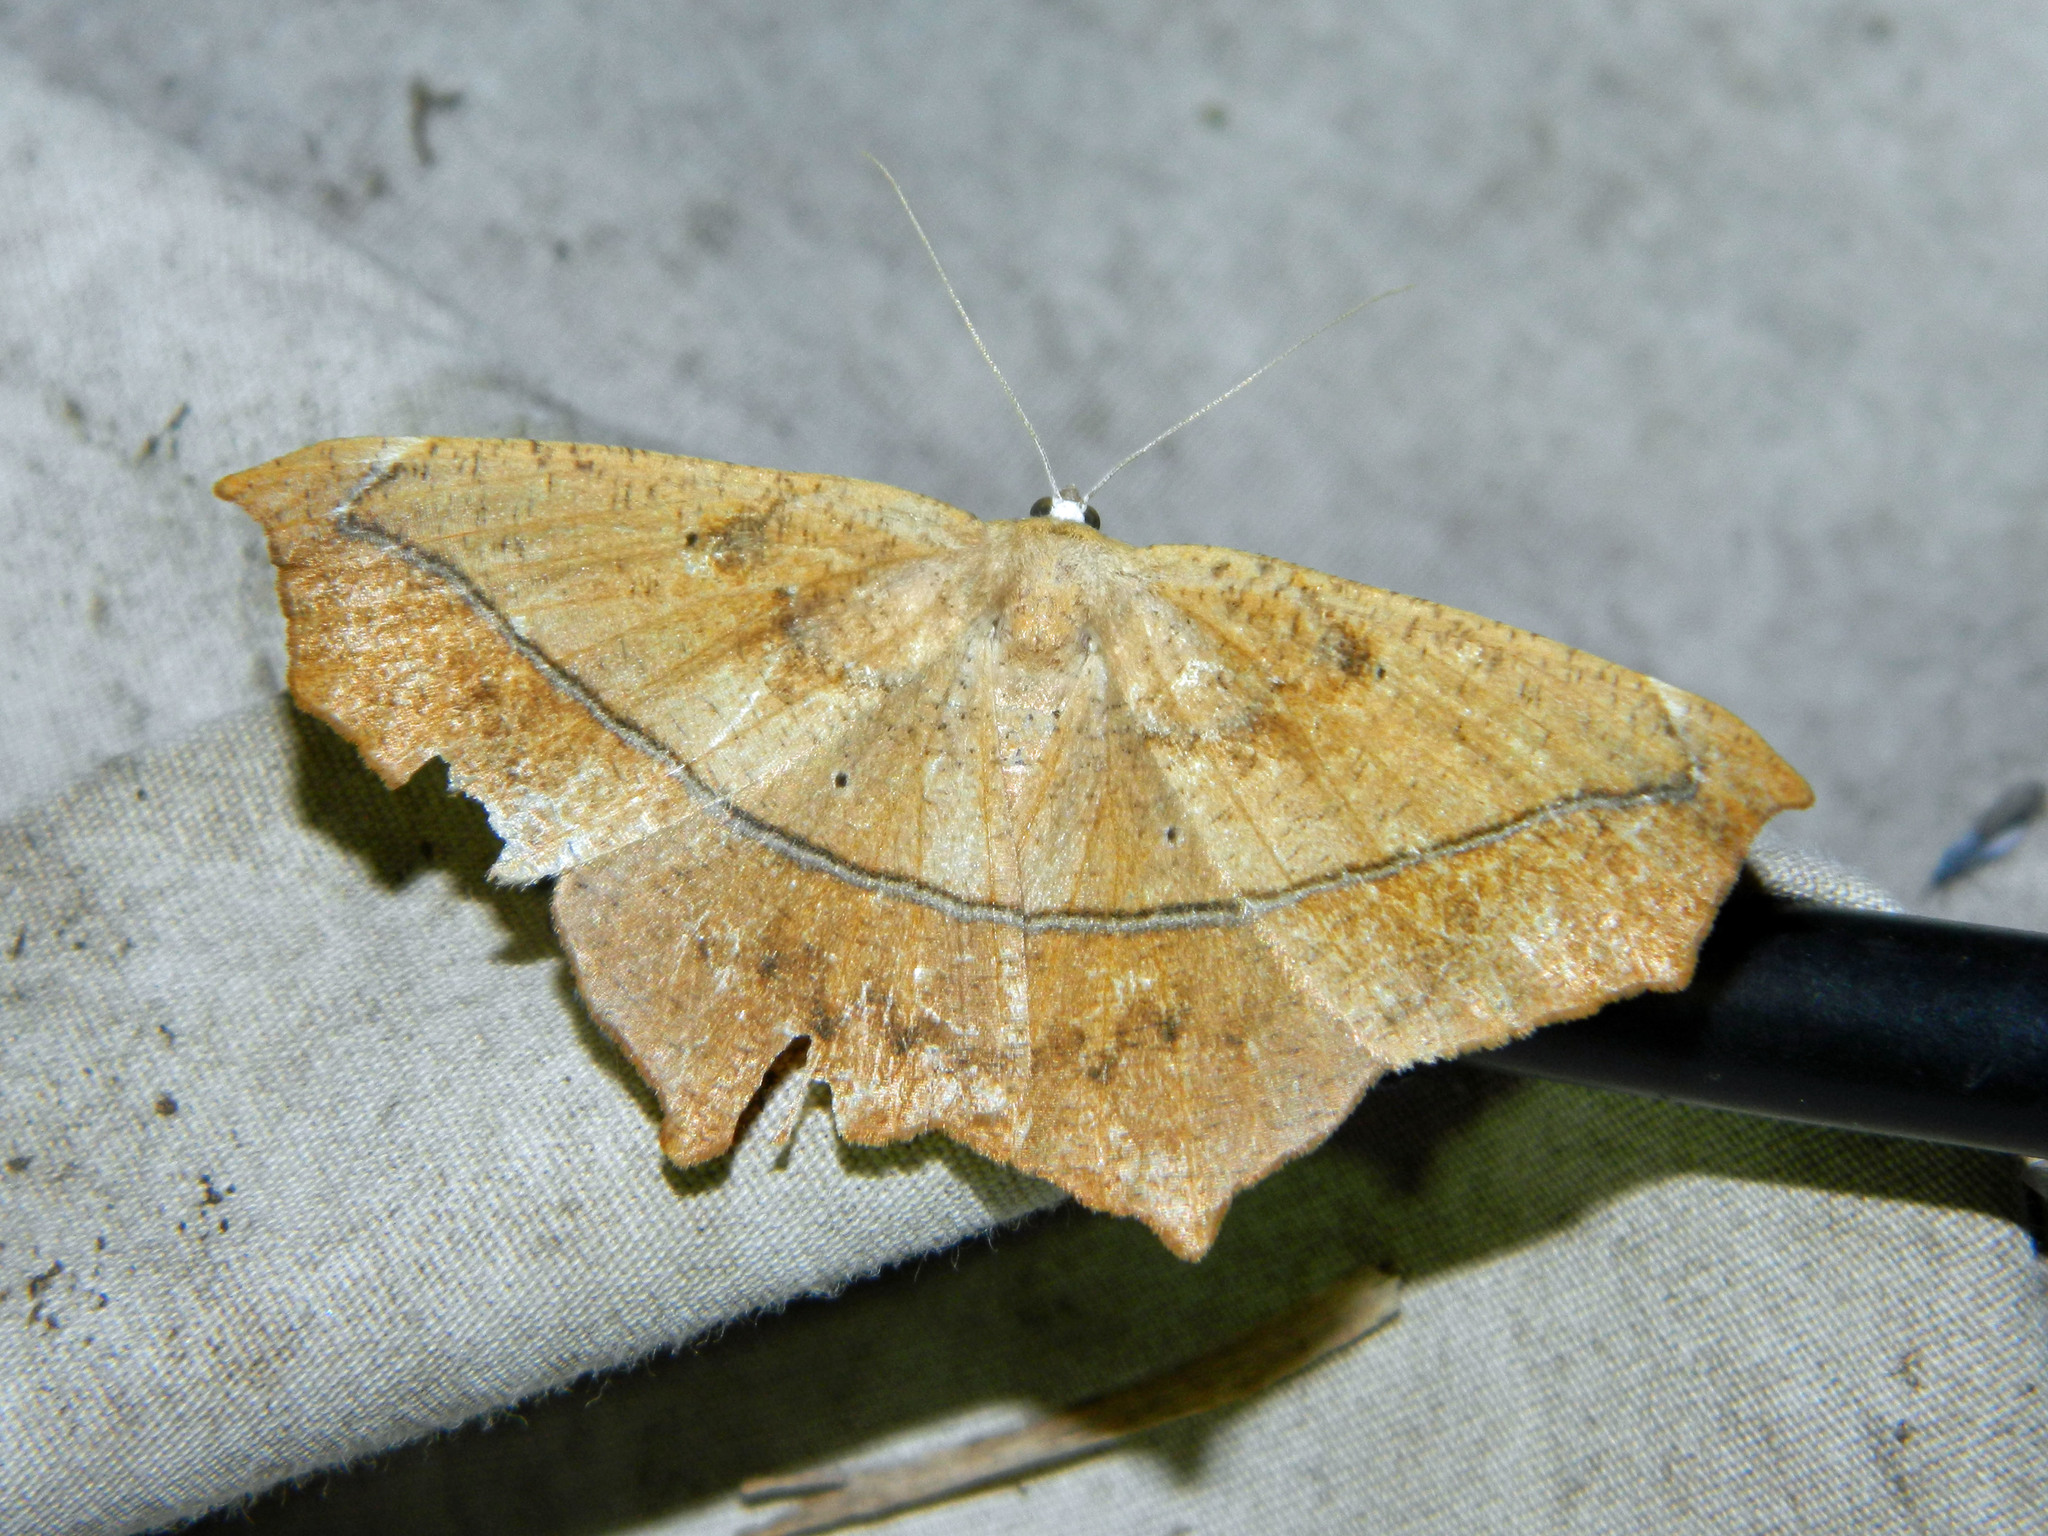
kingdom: Animalia
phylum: Arthropoda
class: Insecta
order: Lepidoptera
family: Geometridae
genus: Prochoerodes
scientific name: Prochoerodes lineola
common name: Large maple spanworm
